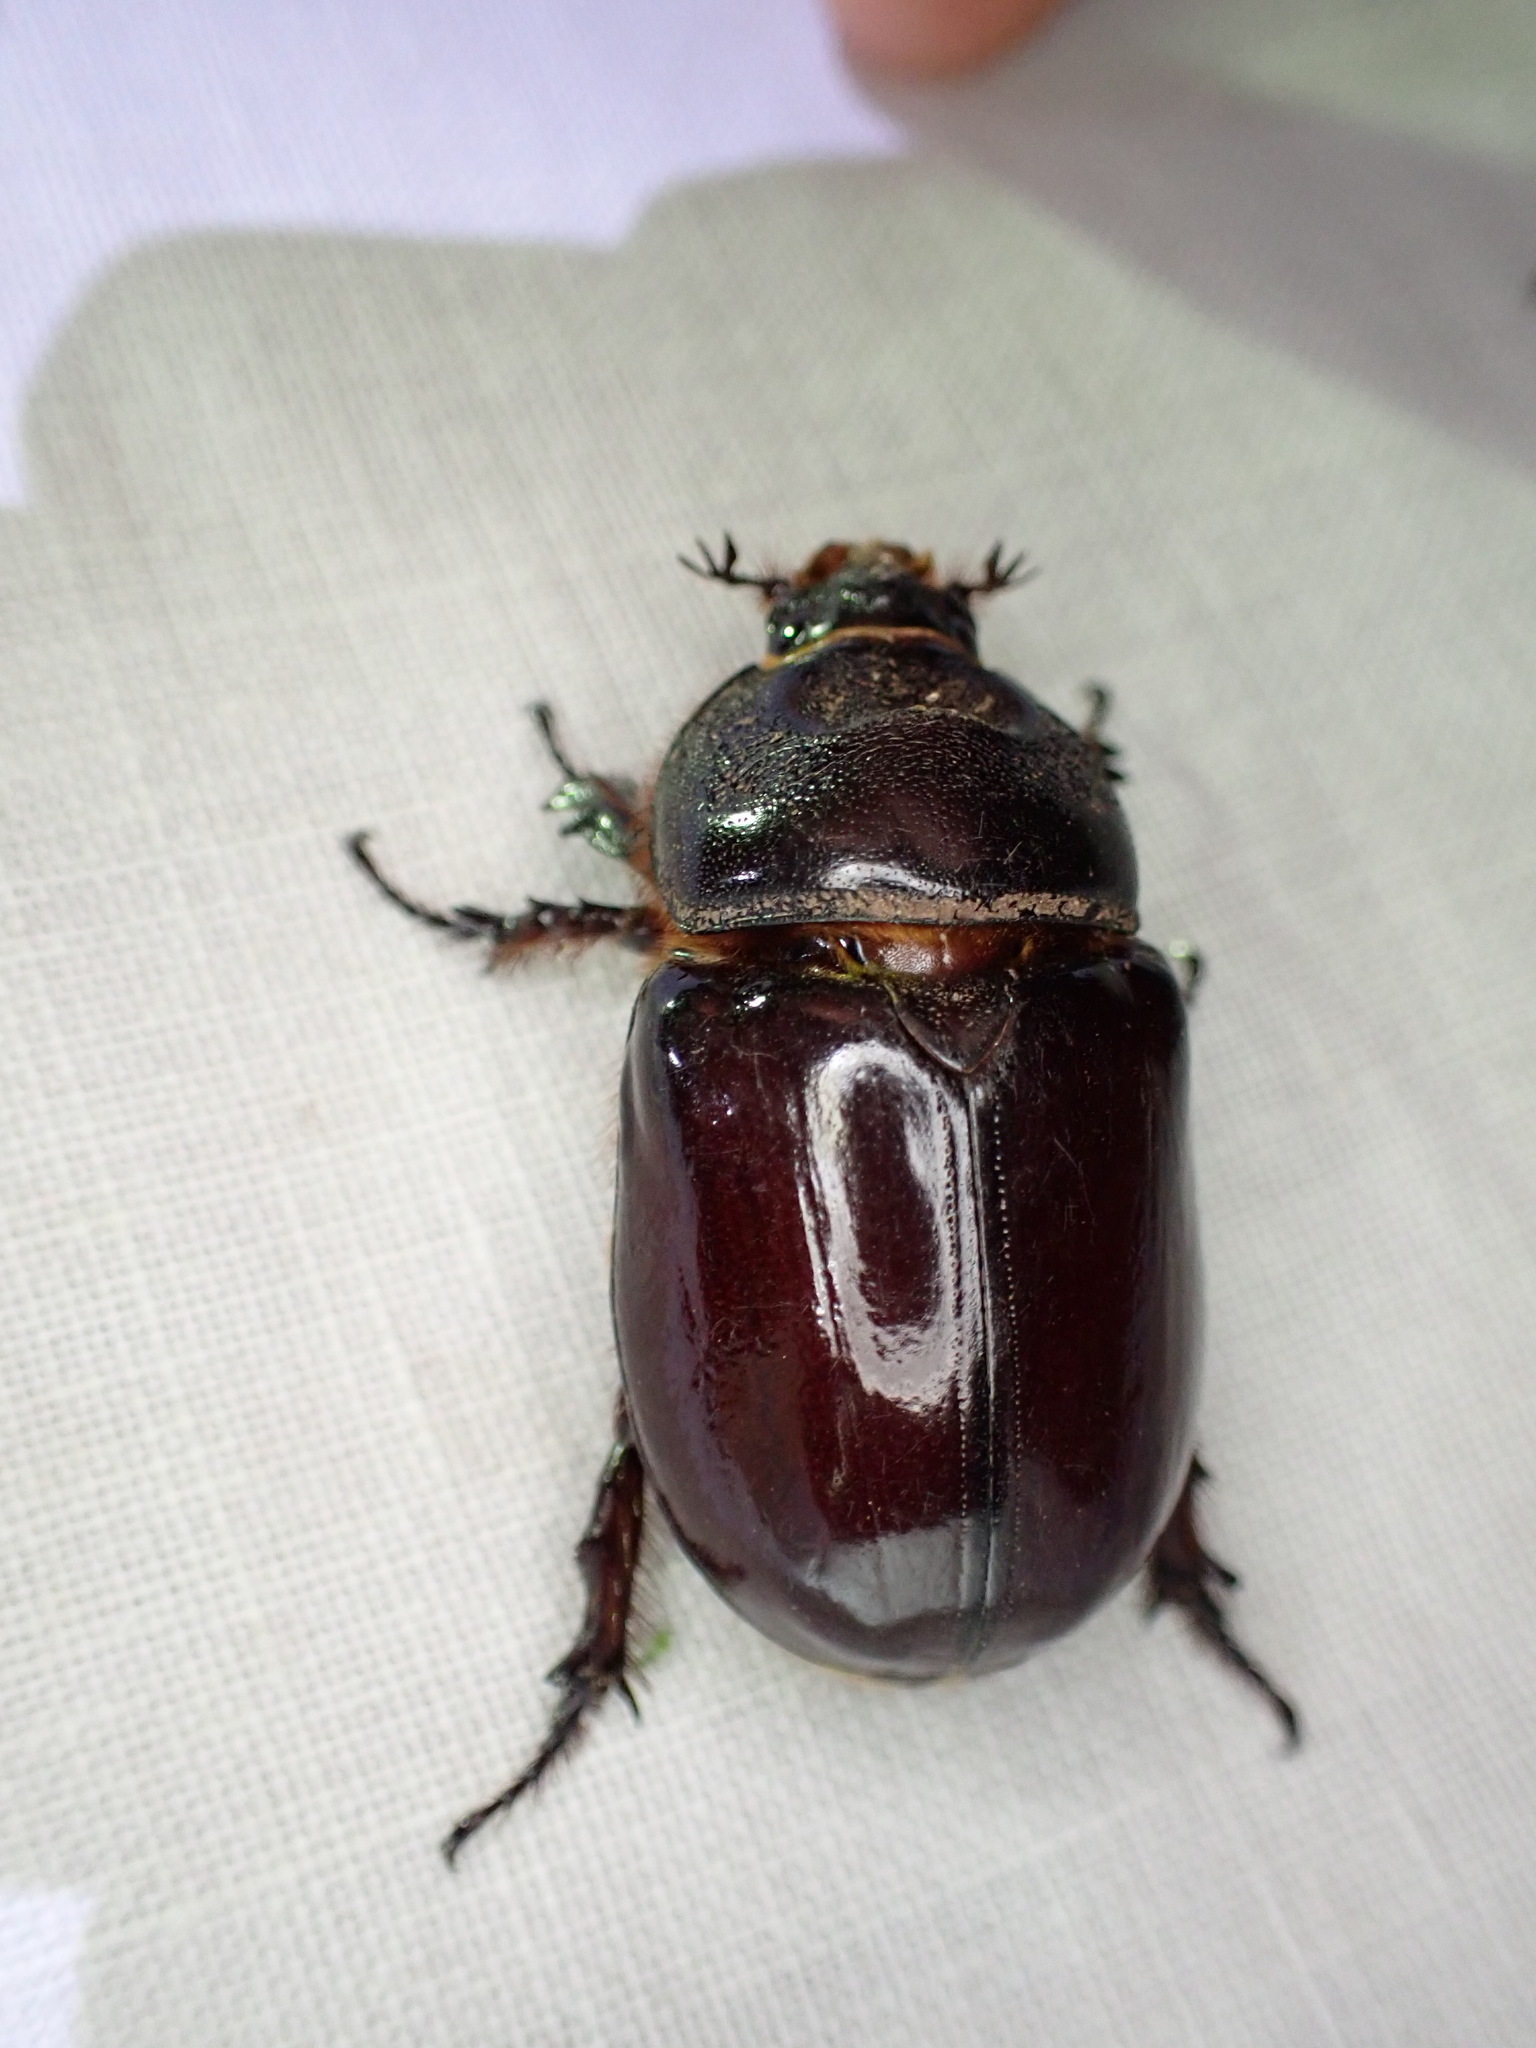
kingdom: Animalia
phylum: Arthropoda
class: Insecta
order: Coleoptera
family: Scarabaeidae
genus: Oryctes
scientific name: Oryctes nasicornis
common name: European rhinoceros beetle
